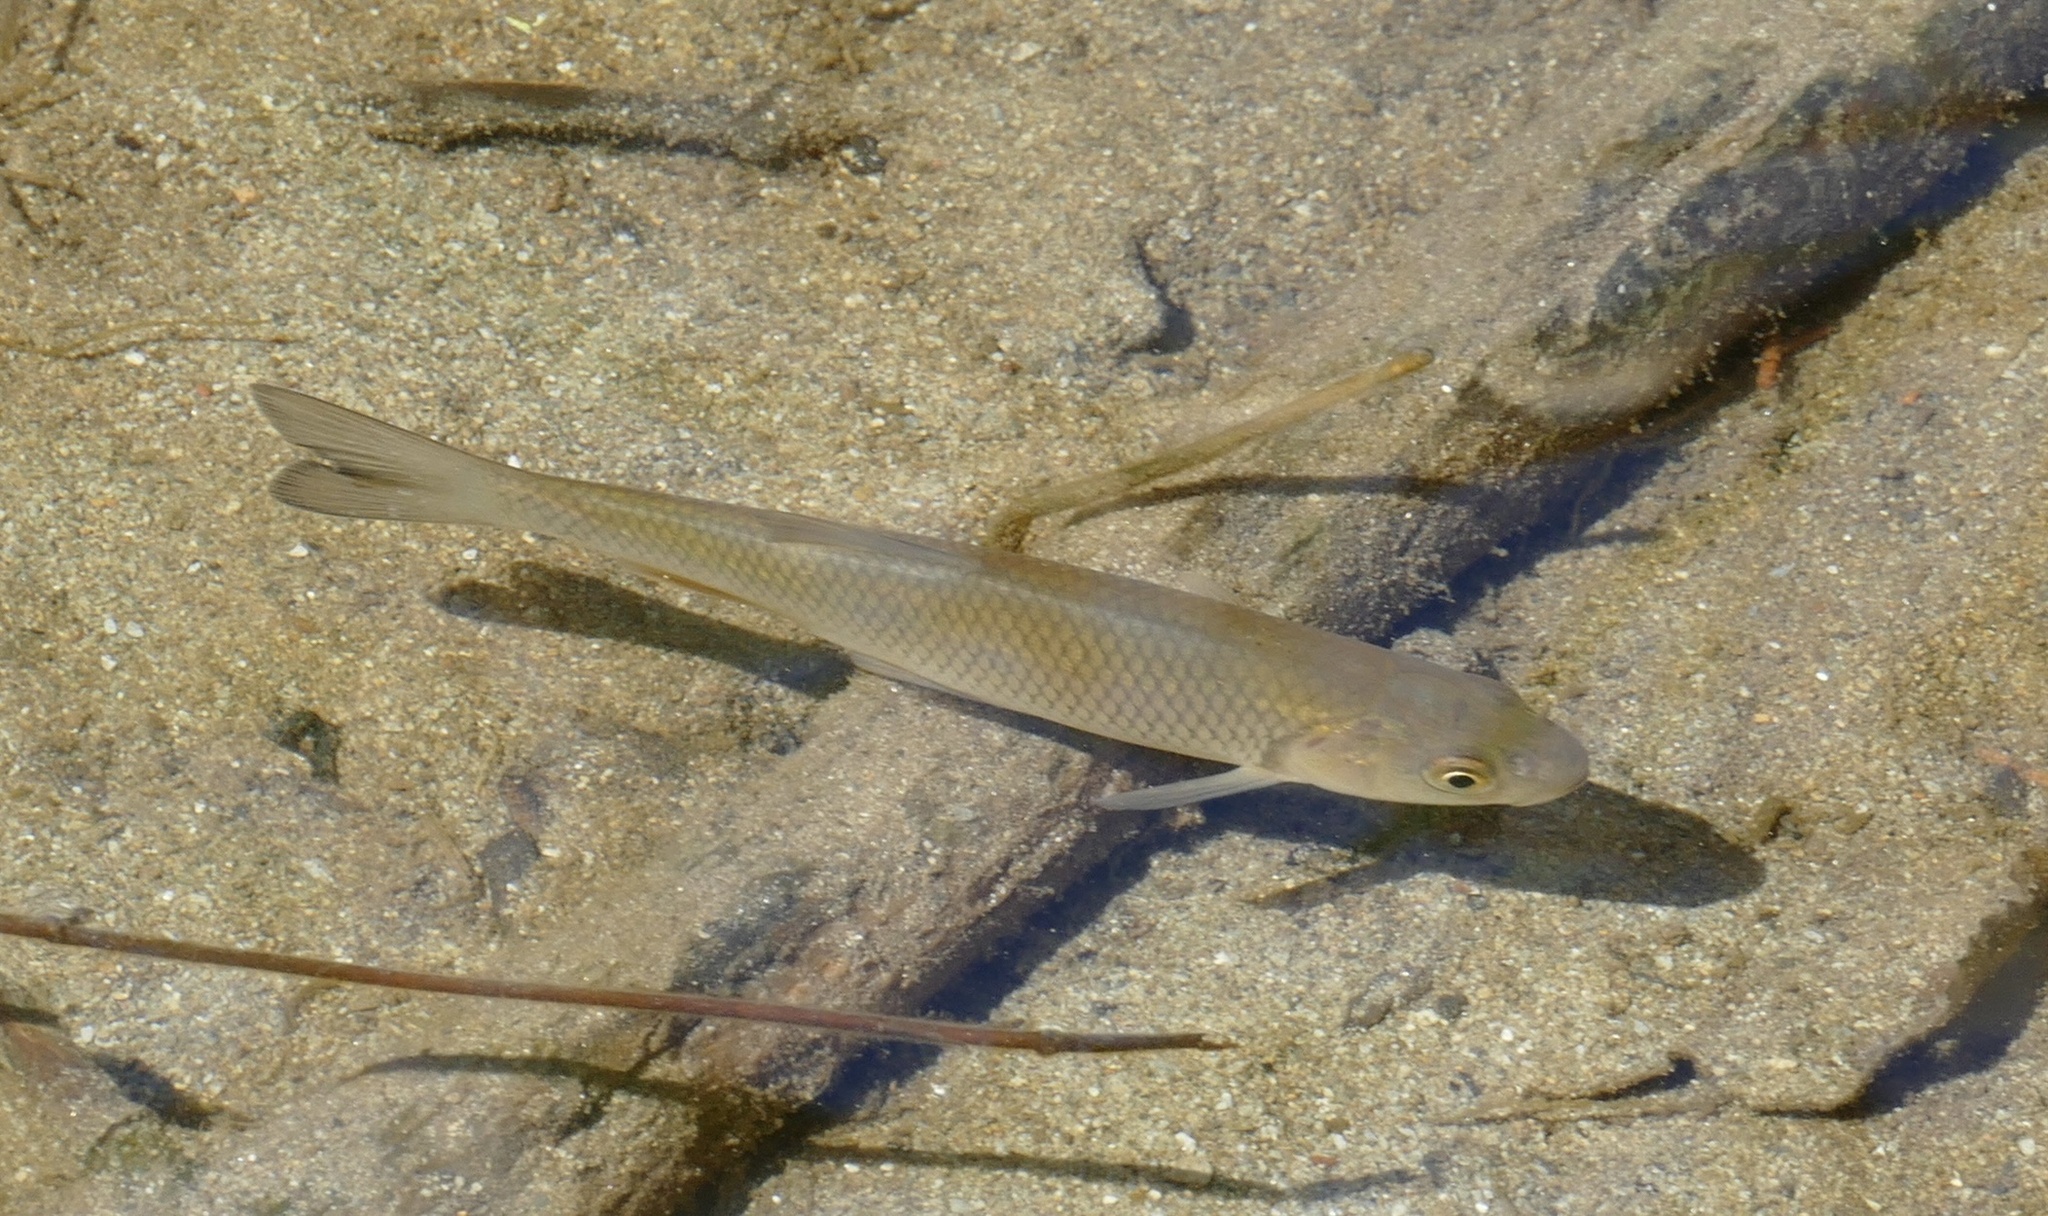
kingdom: Animalia
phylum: Chordata
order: Cypriniformes
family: Cyprinidae
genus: Squalius
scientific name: Squalius cephalus
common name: Chub
